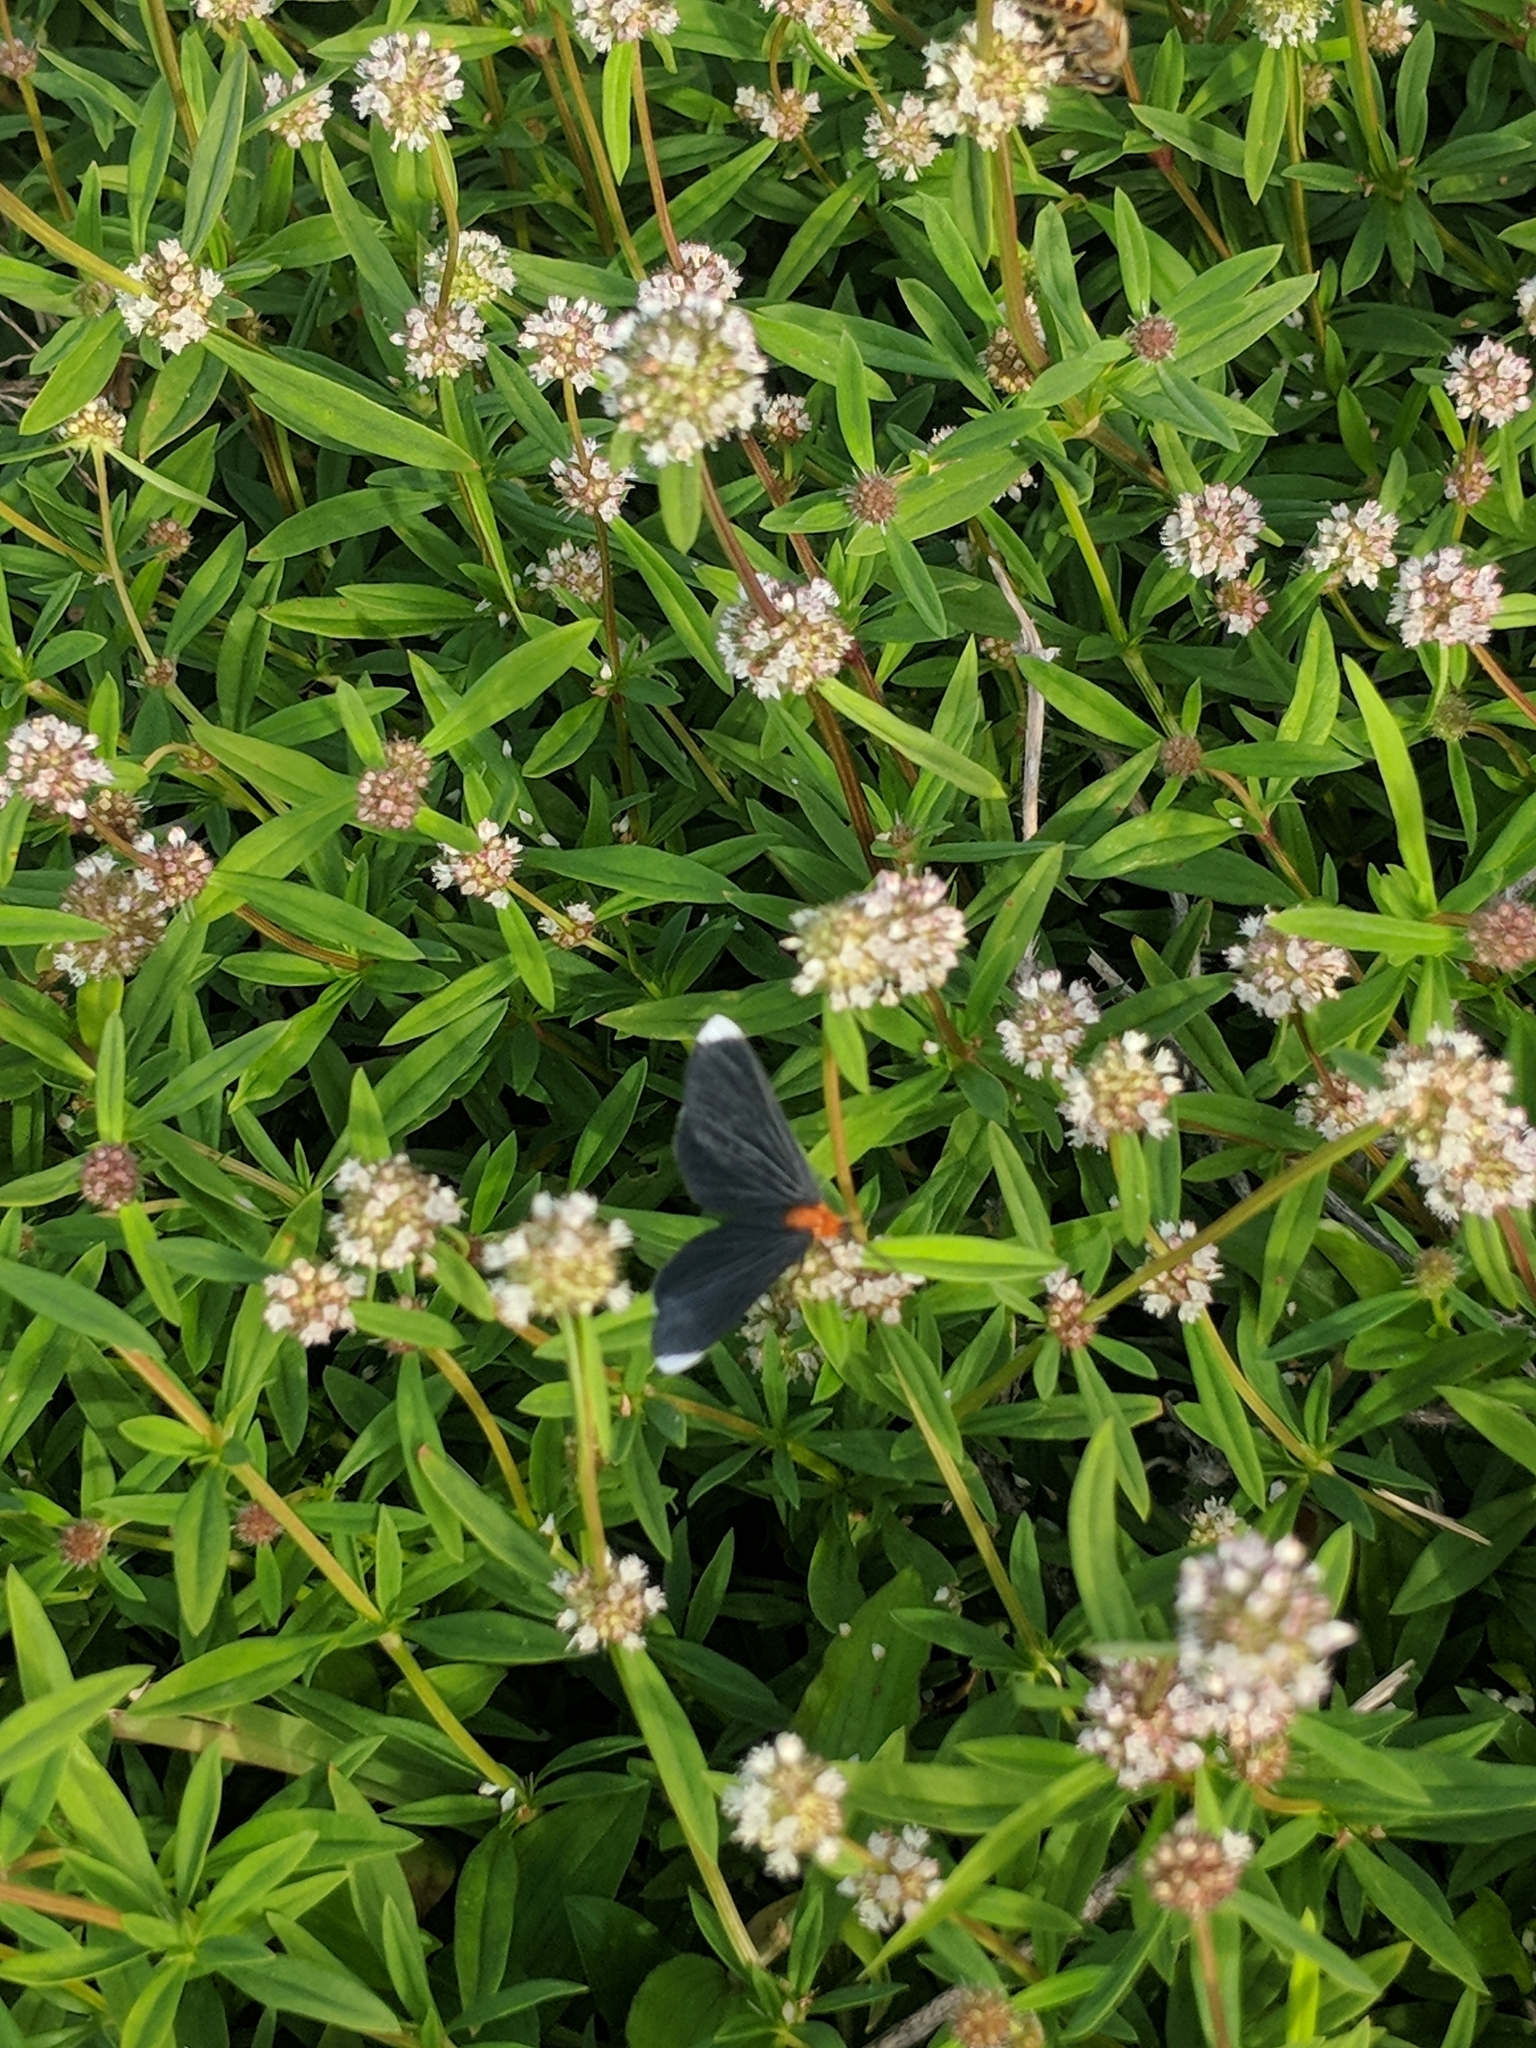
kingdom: Animalia
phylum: Arthropoda
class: Insecta
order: Lepidoptera
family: Geometridae
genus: Melanchroia
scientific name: Melanchroia chephise
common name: White-tipped black
